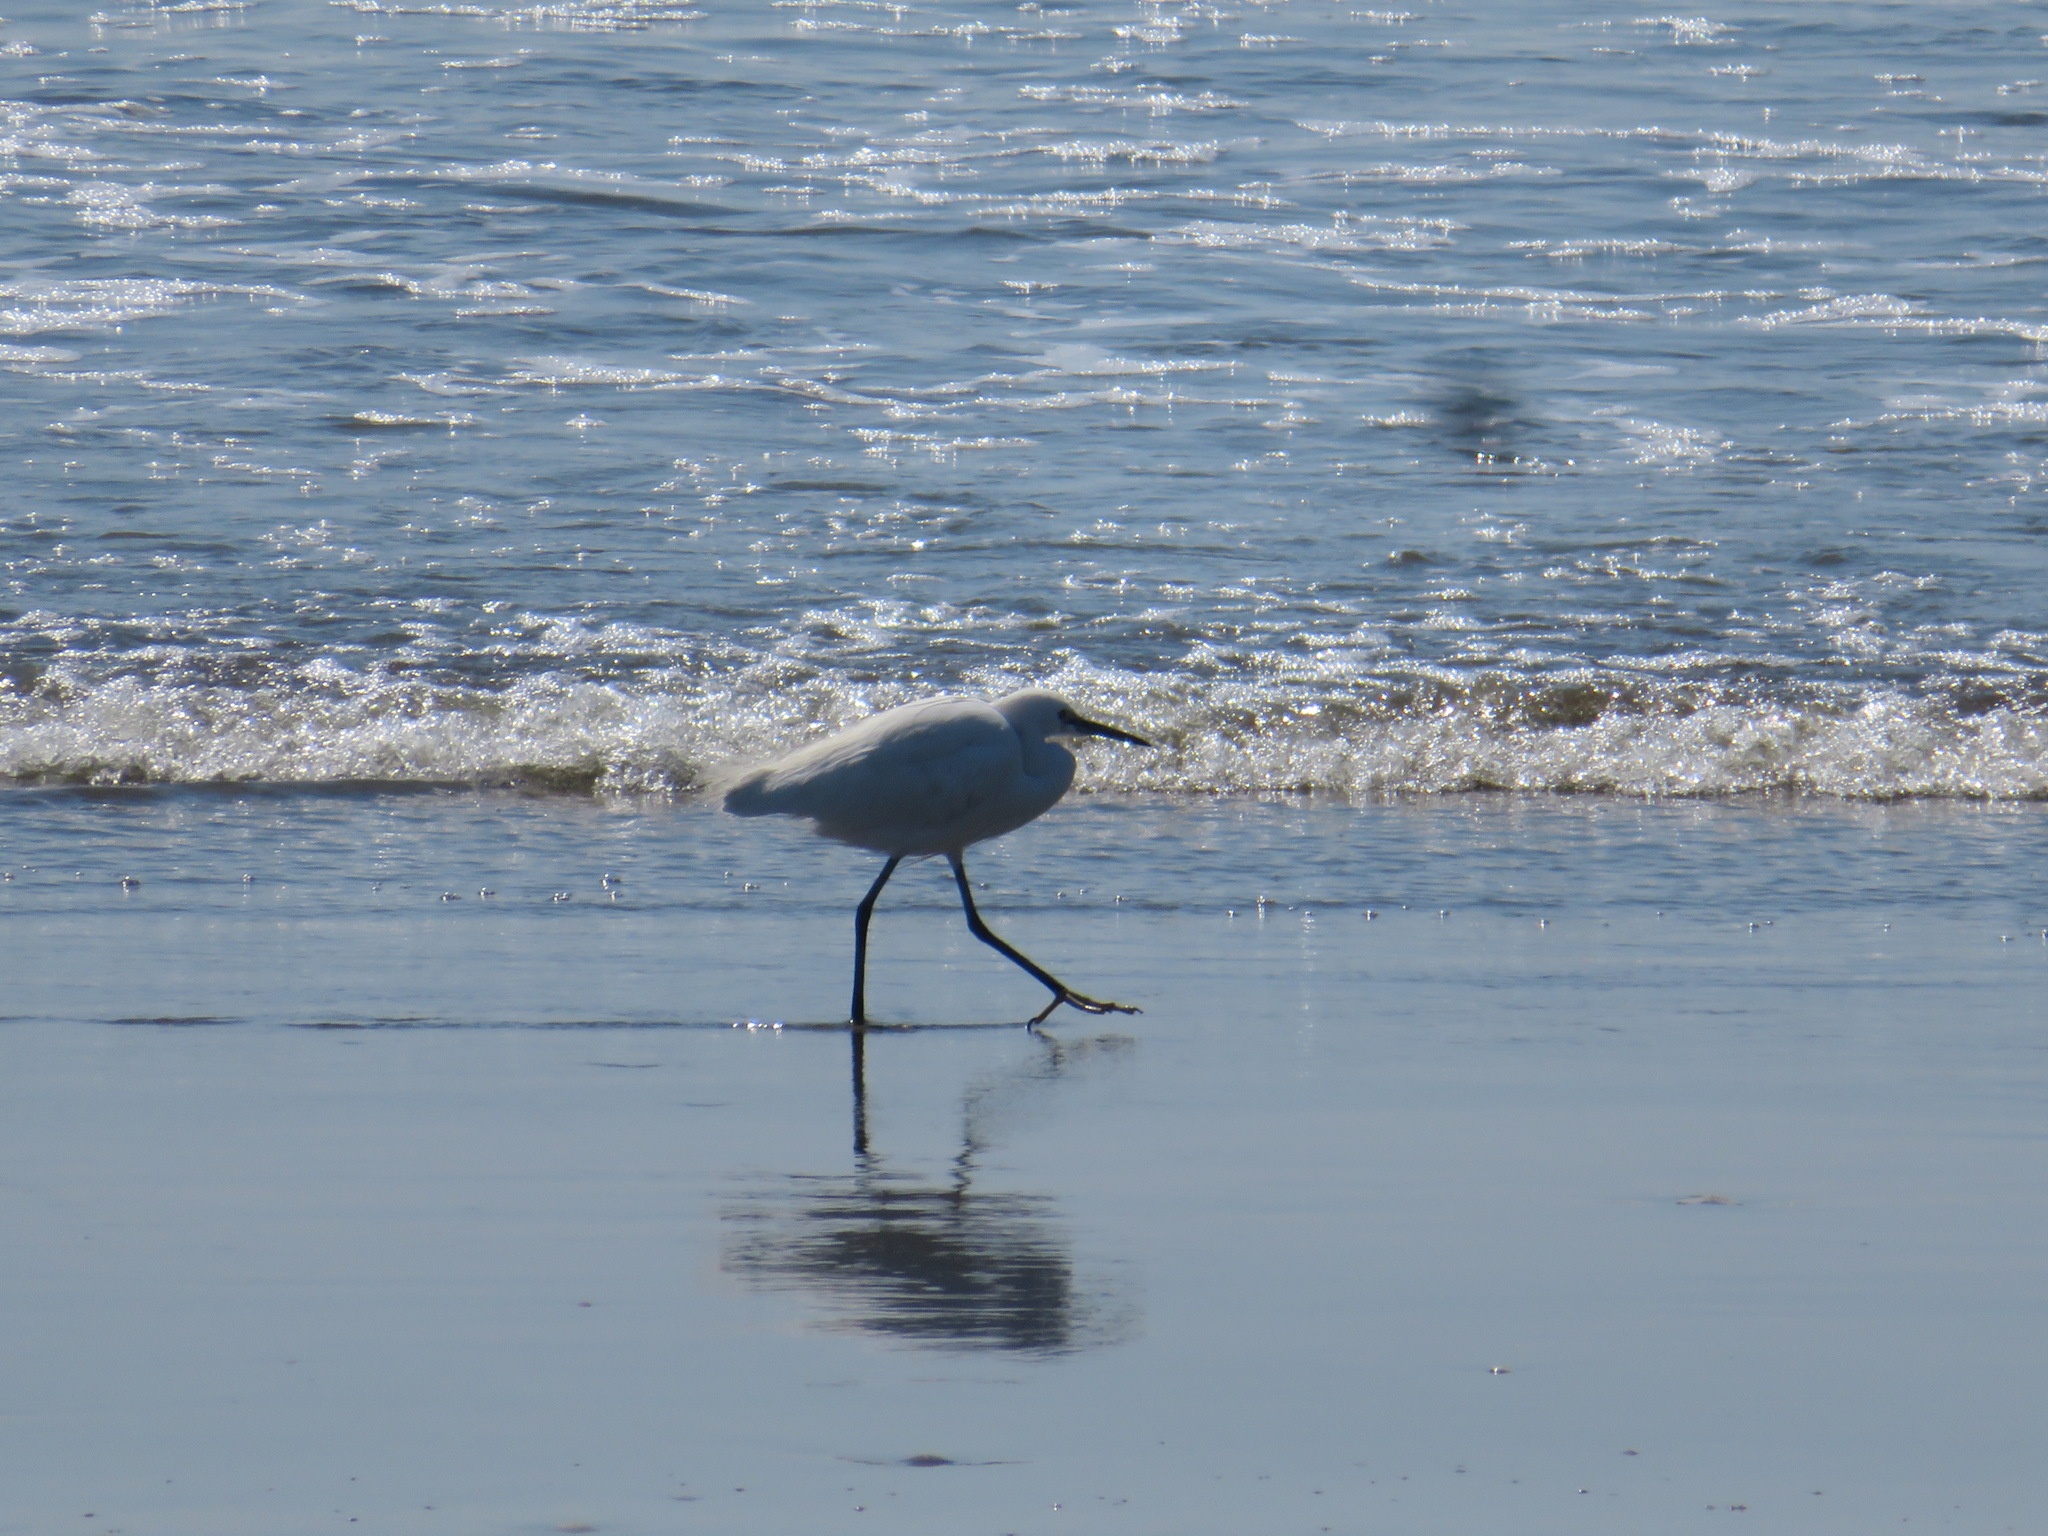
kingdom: Animalia
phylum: Chordata
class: Aves
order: Pelecaniformes
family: Ardeidae
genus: Egretta
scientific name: Egretta garzetta
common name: Little egret
